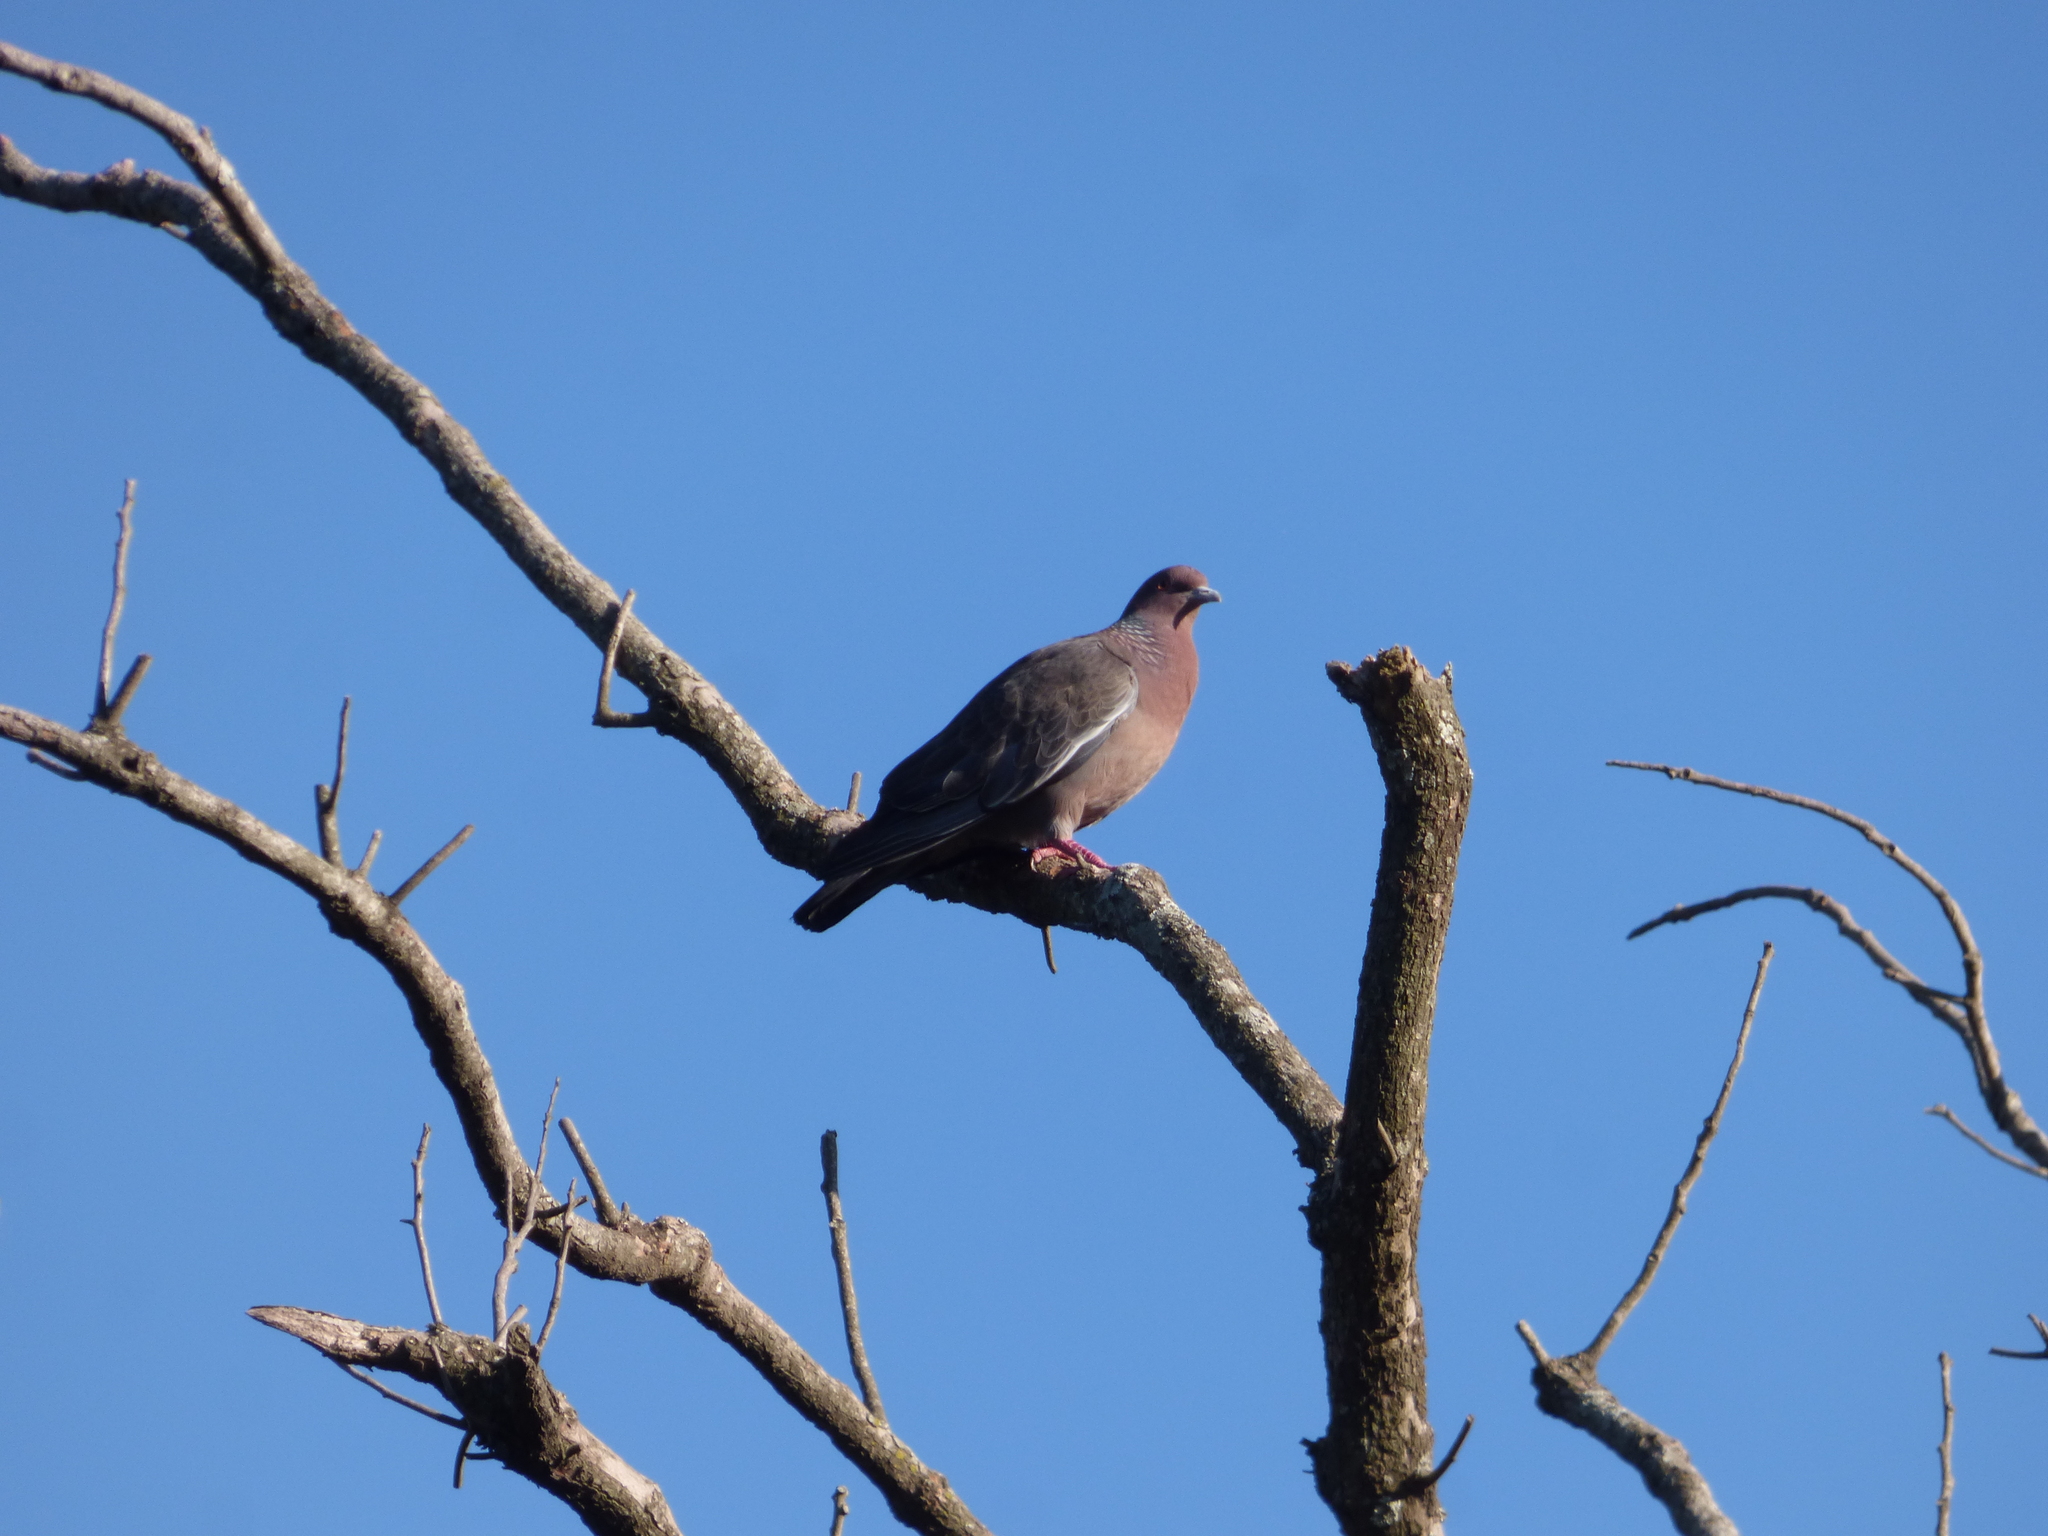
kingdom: Animalia
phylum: Chordata
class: Aves
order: Columbiformes
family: Columbidae
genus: Patagioenas
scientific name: Patagioenas picazuro
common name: Picazuro pigeon
